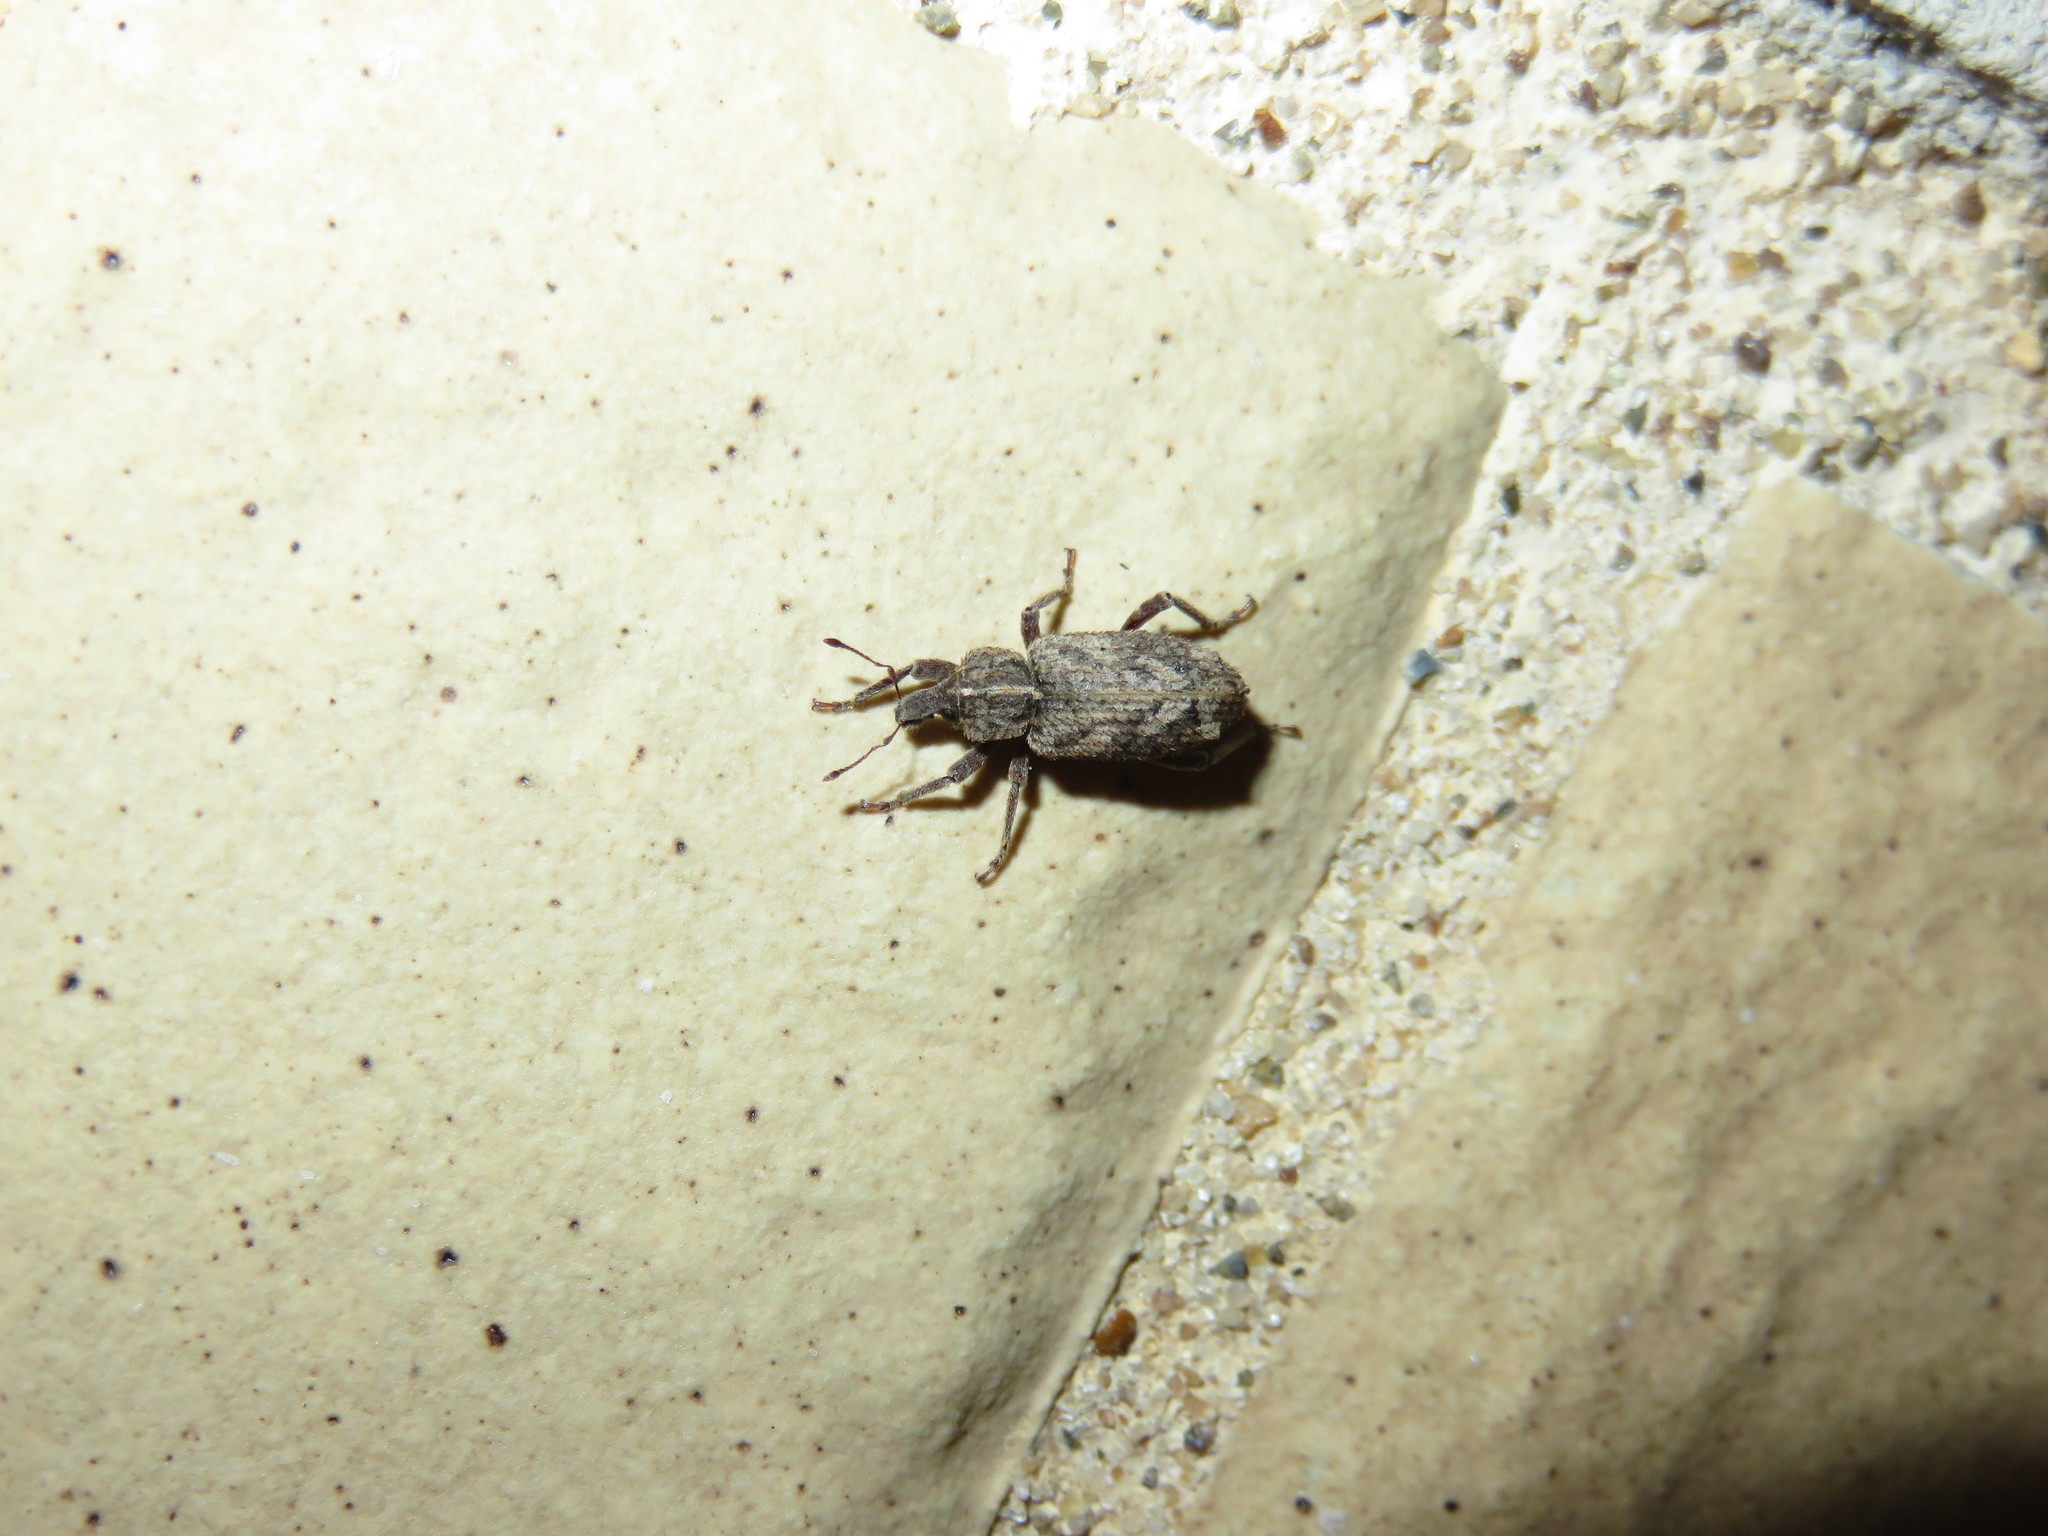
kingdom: Animalia
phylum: Arthropoda
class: Insecta
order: Coleoptera
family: Curculionidae
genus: Listroderes
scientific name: Listroderes costirostris
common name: Weevil
